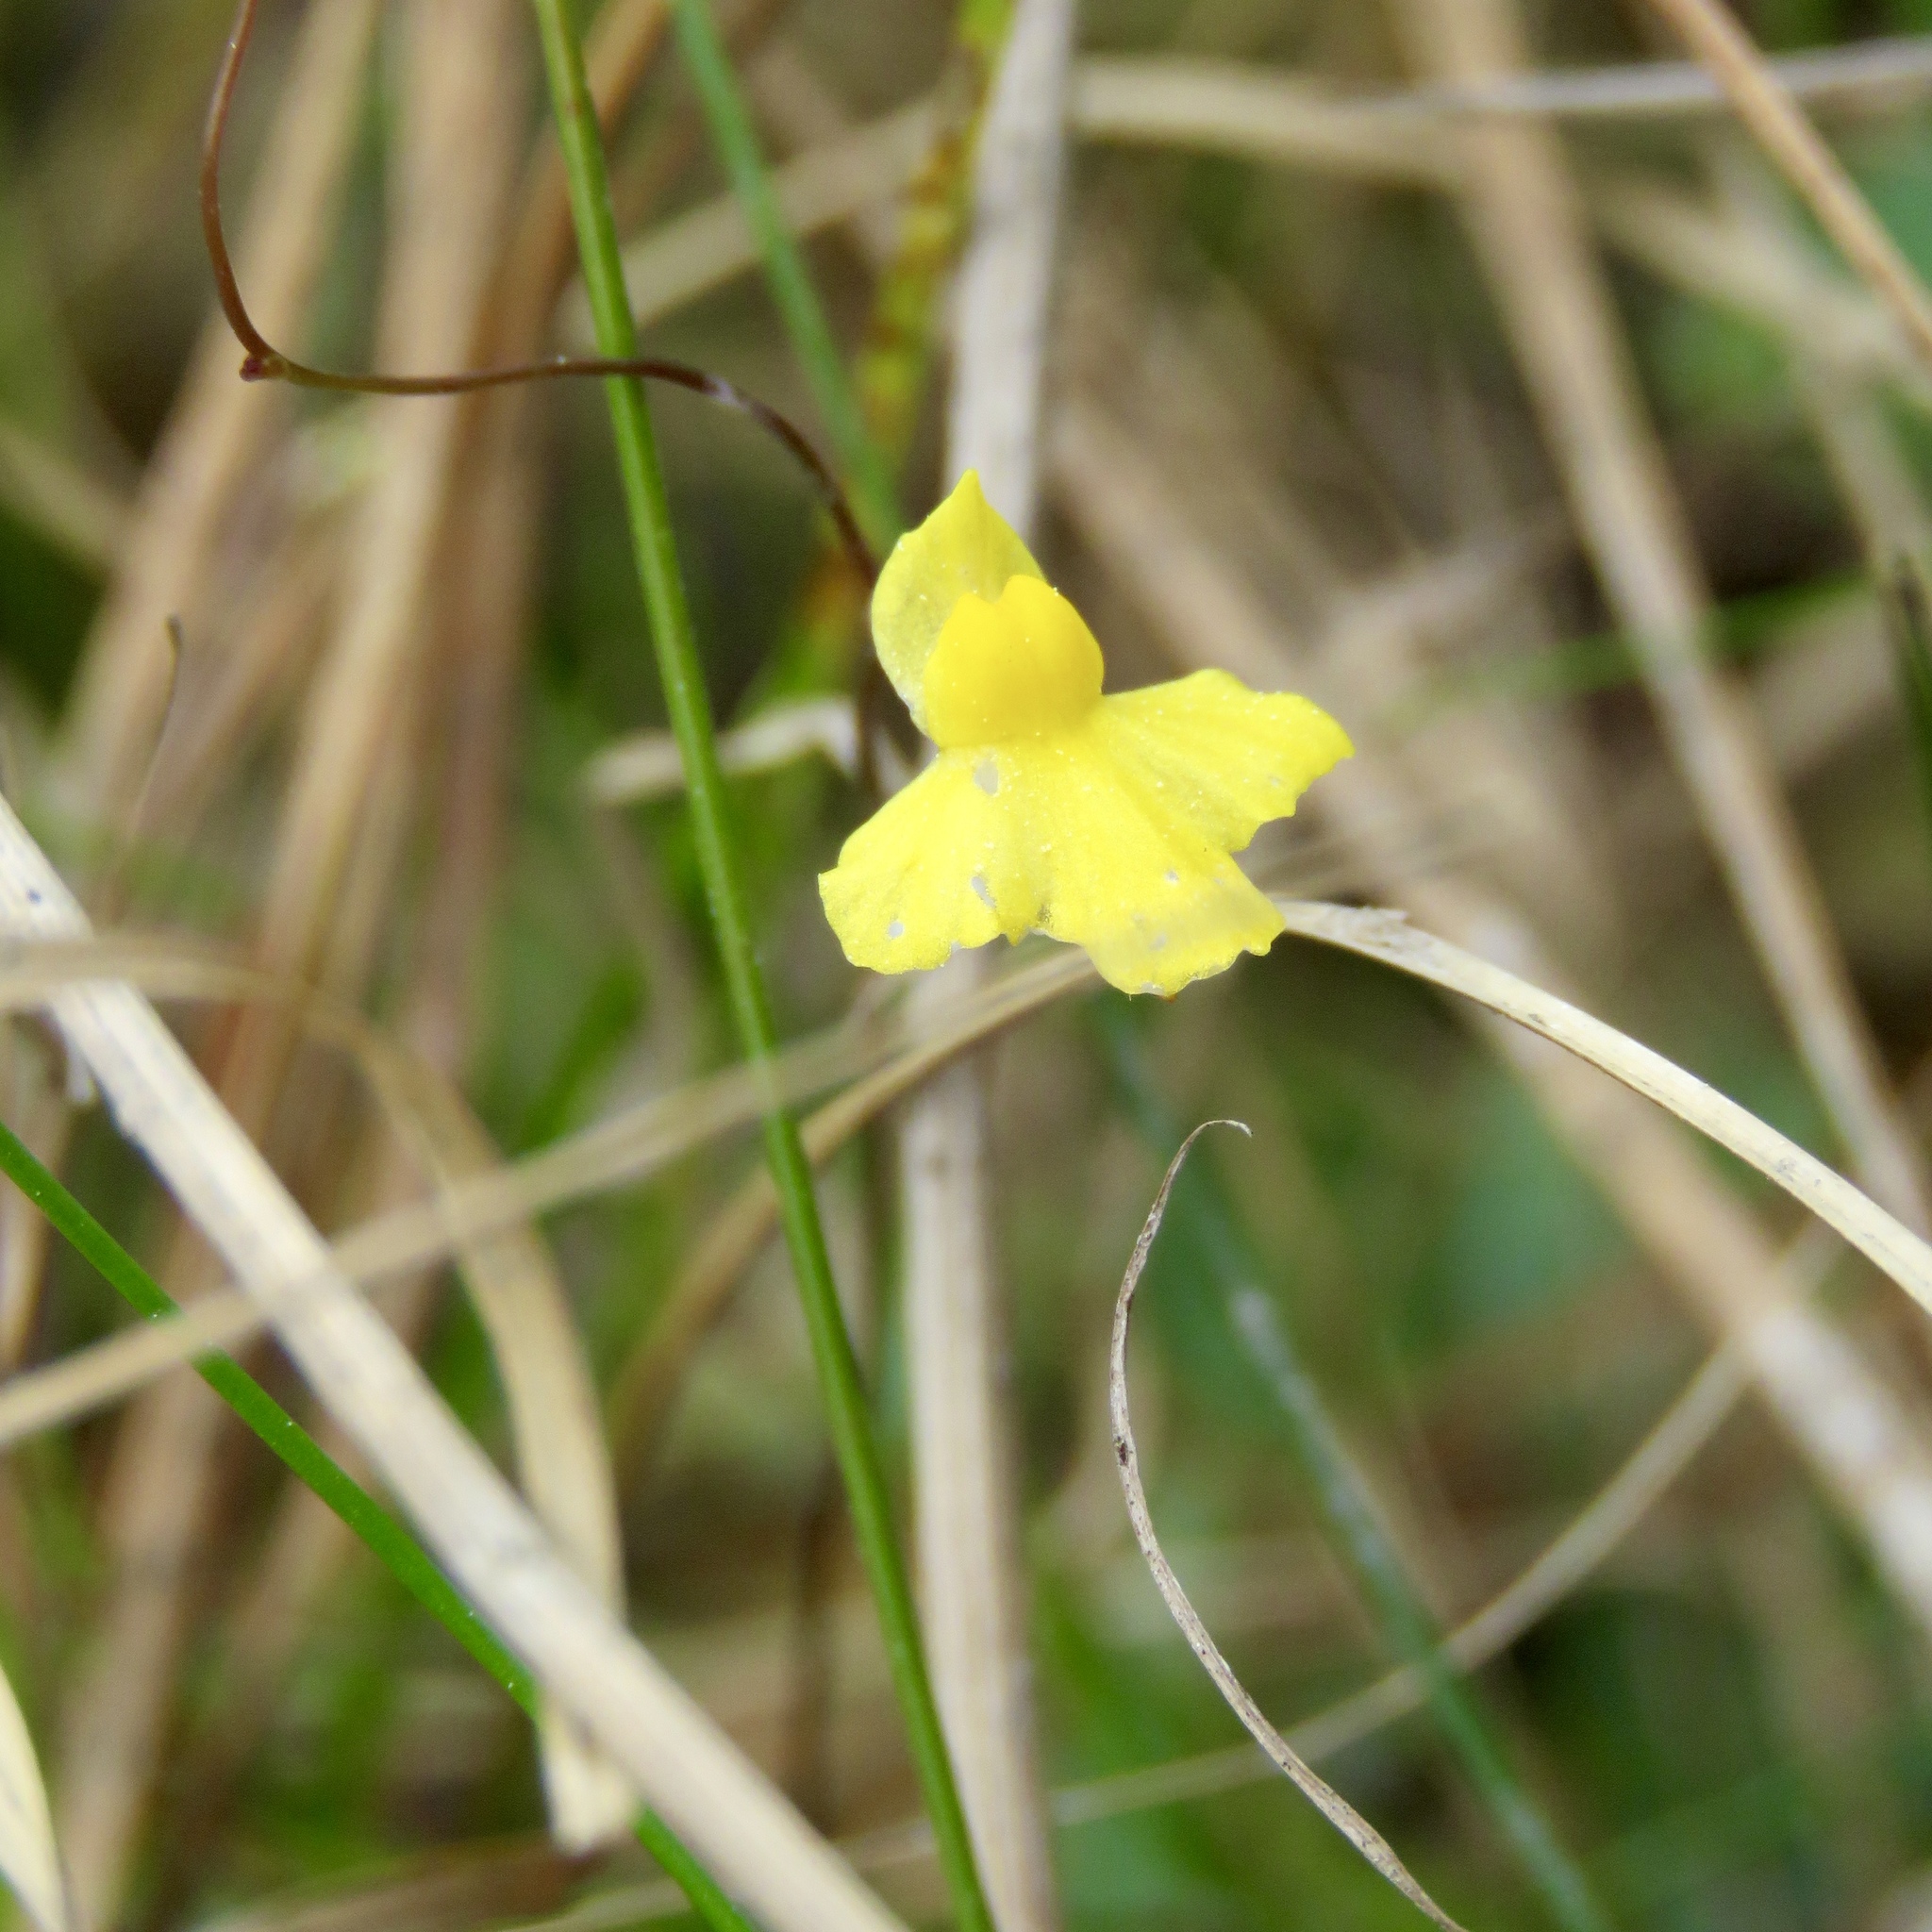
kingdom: Plantae
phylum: Tracheophyta
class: Magnoliopsida
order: Lamiales
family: Lentibulariaceae
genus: Utricularia
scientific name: Utricularia subulata
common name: Tiny bladderwort
